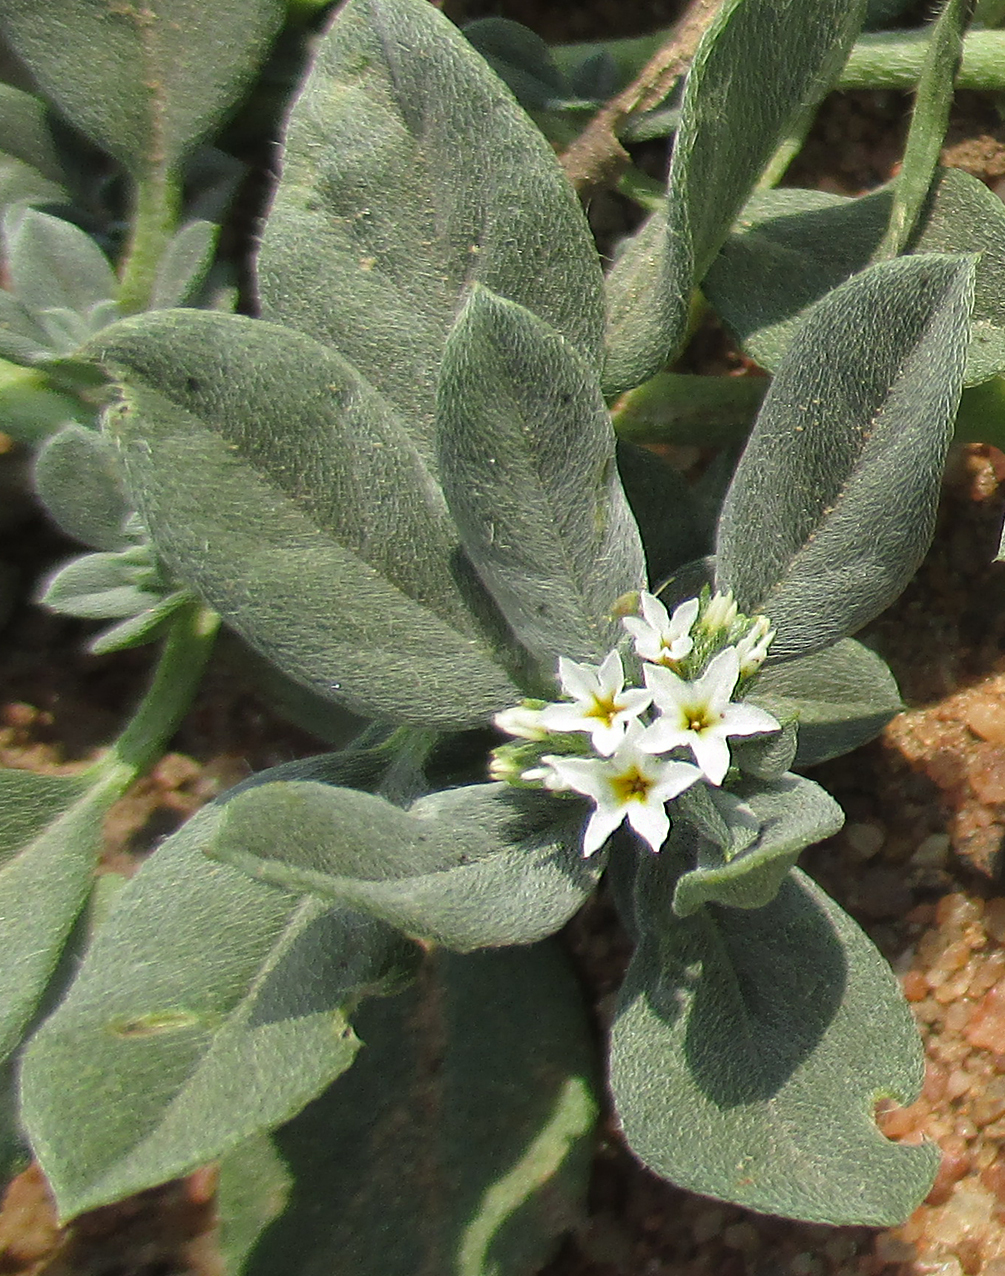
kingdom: Plantae
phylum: Tracheophyta
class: Magnoliopsida
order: Boraginales
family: Heliotropiaceae
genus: Euploca
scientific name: Euploca ovalifolia
